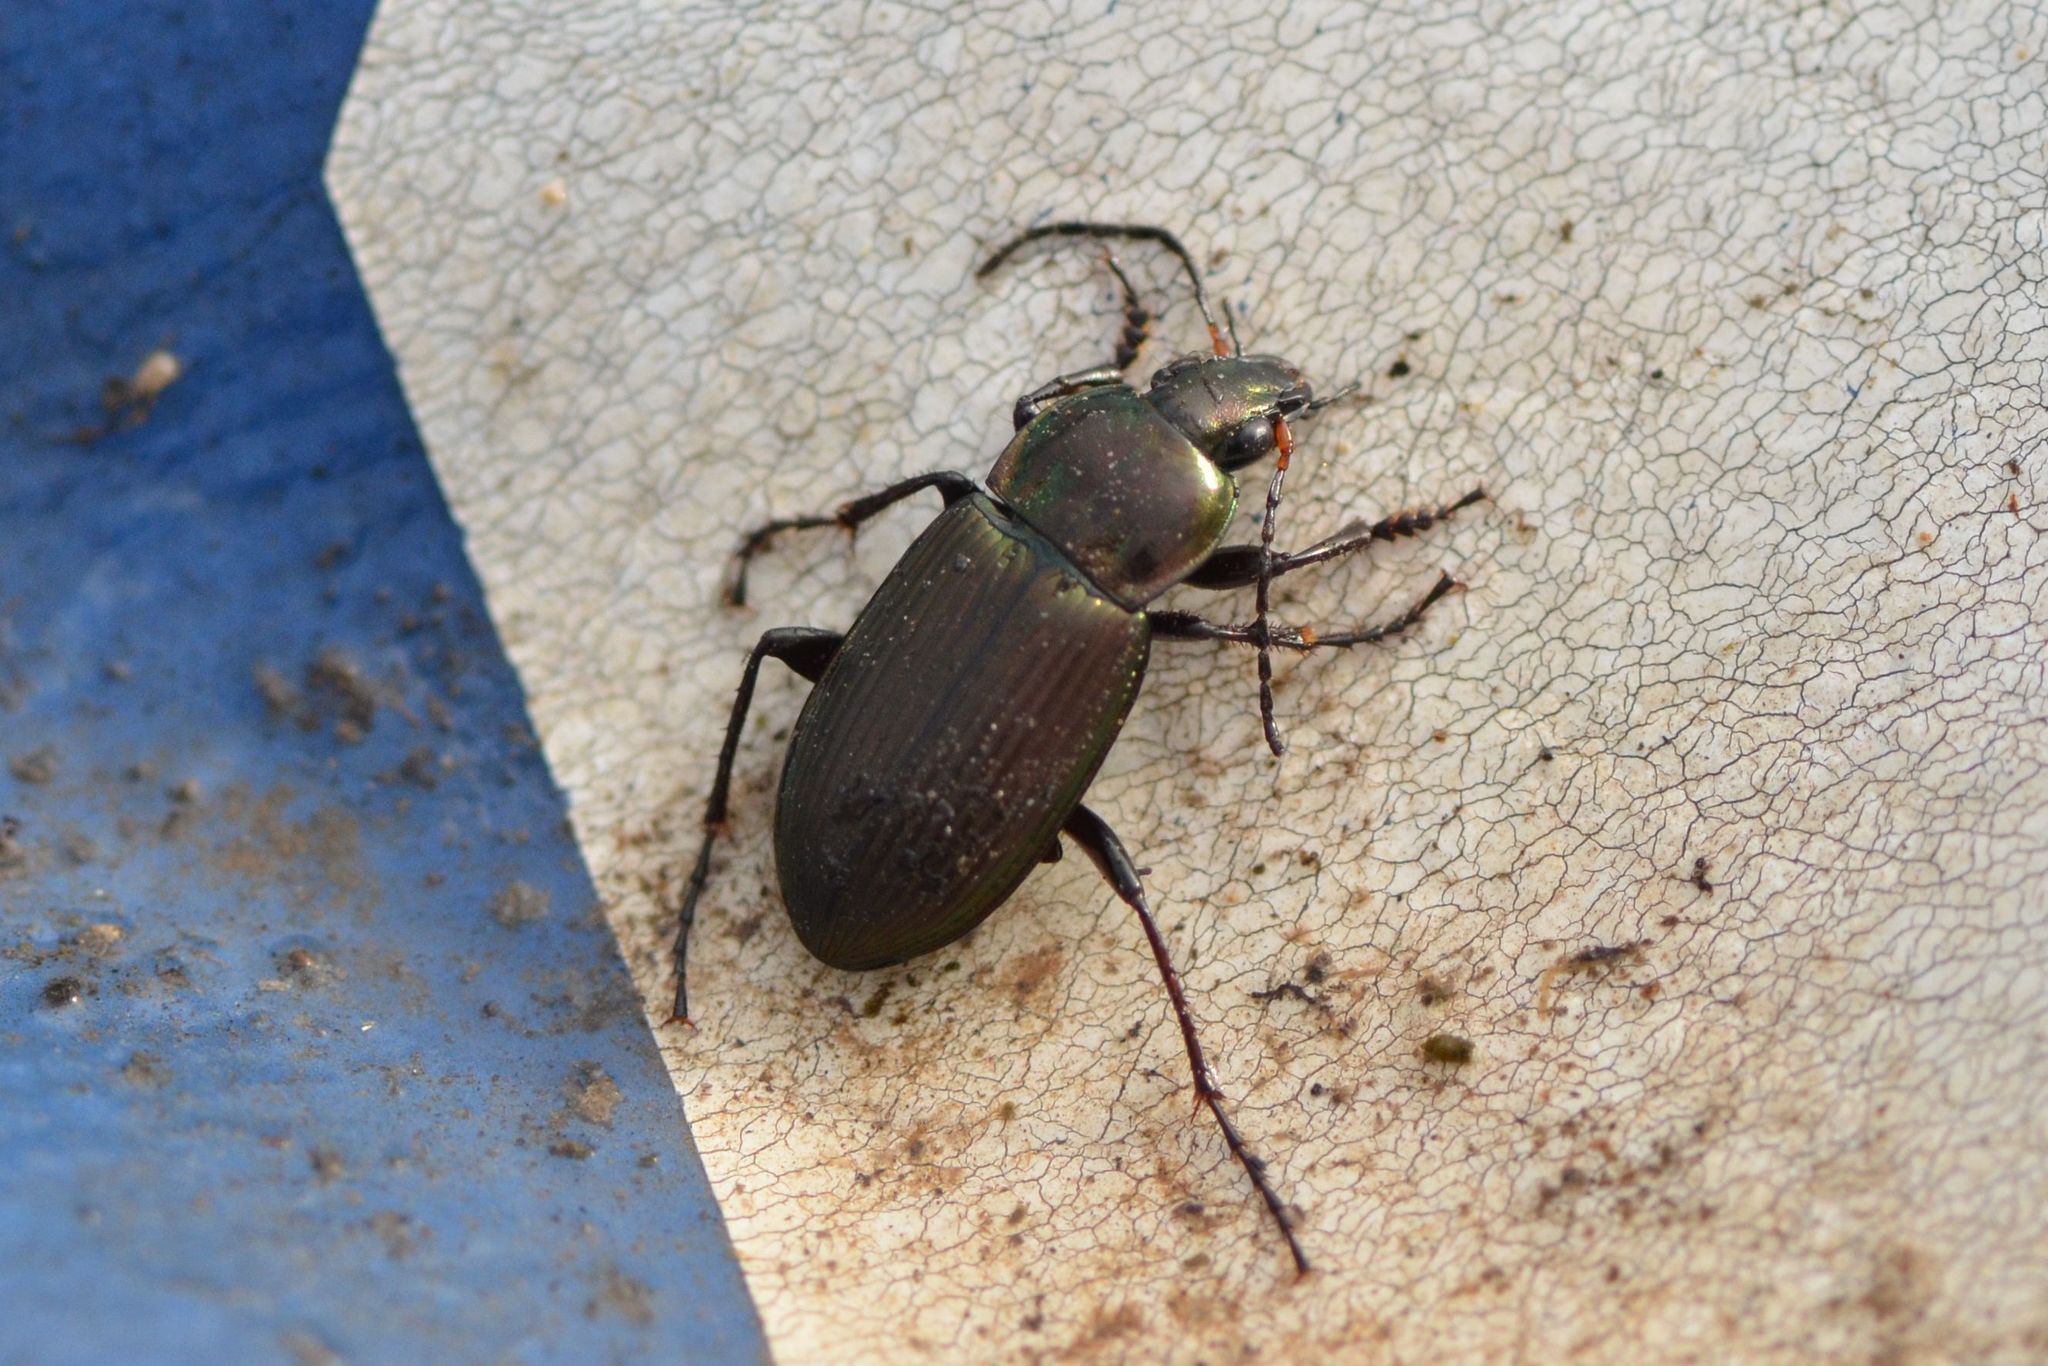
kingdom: Animalia
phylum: Arthropoda
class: Insecta
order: Coleoptera
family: Carabidae
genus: Poecilus
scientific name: Poecilus cupreus
